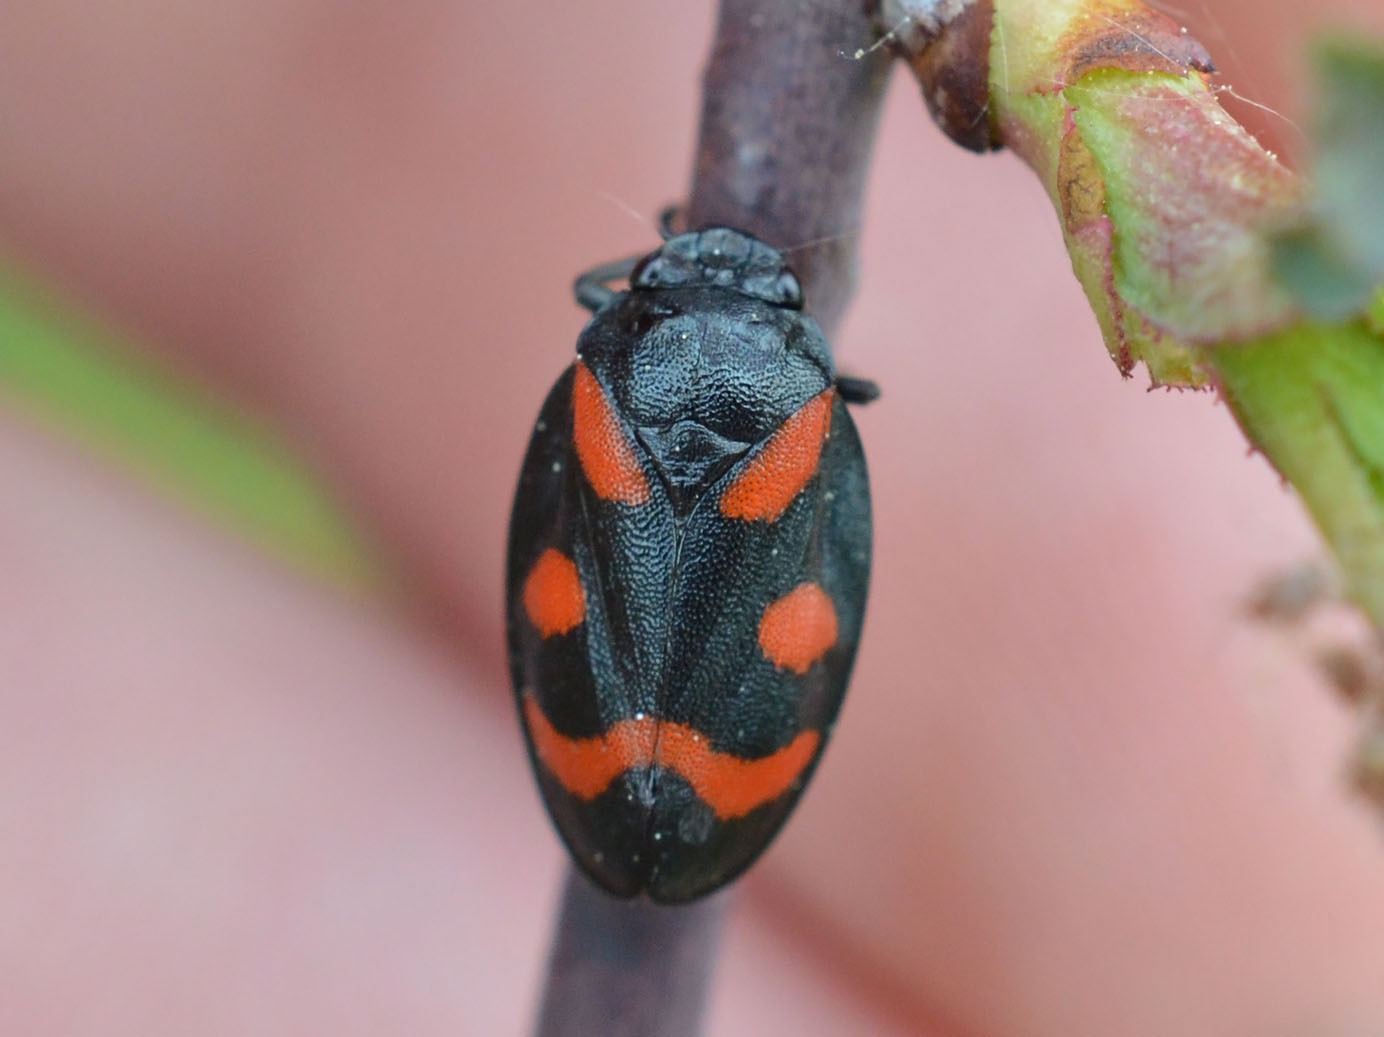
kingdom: Animalia
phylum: Arthropoda
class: Insecta
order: Hemiptera
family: Cercopidae
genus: Cercopis
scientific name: Cercopis arcuata
